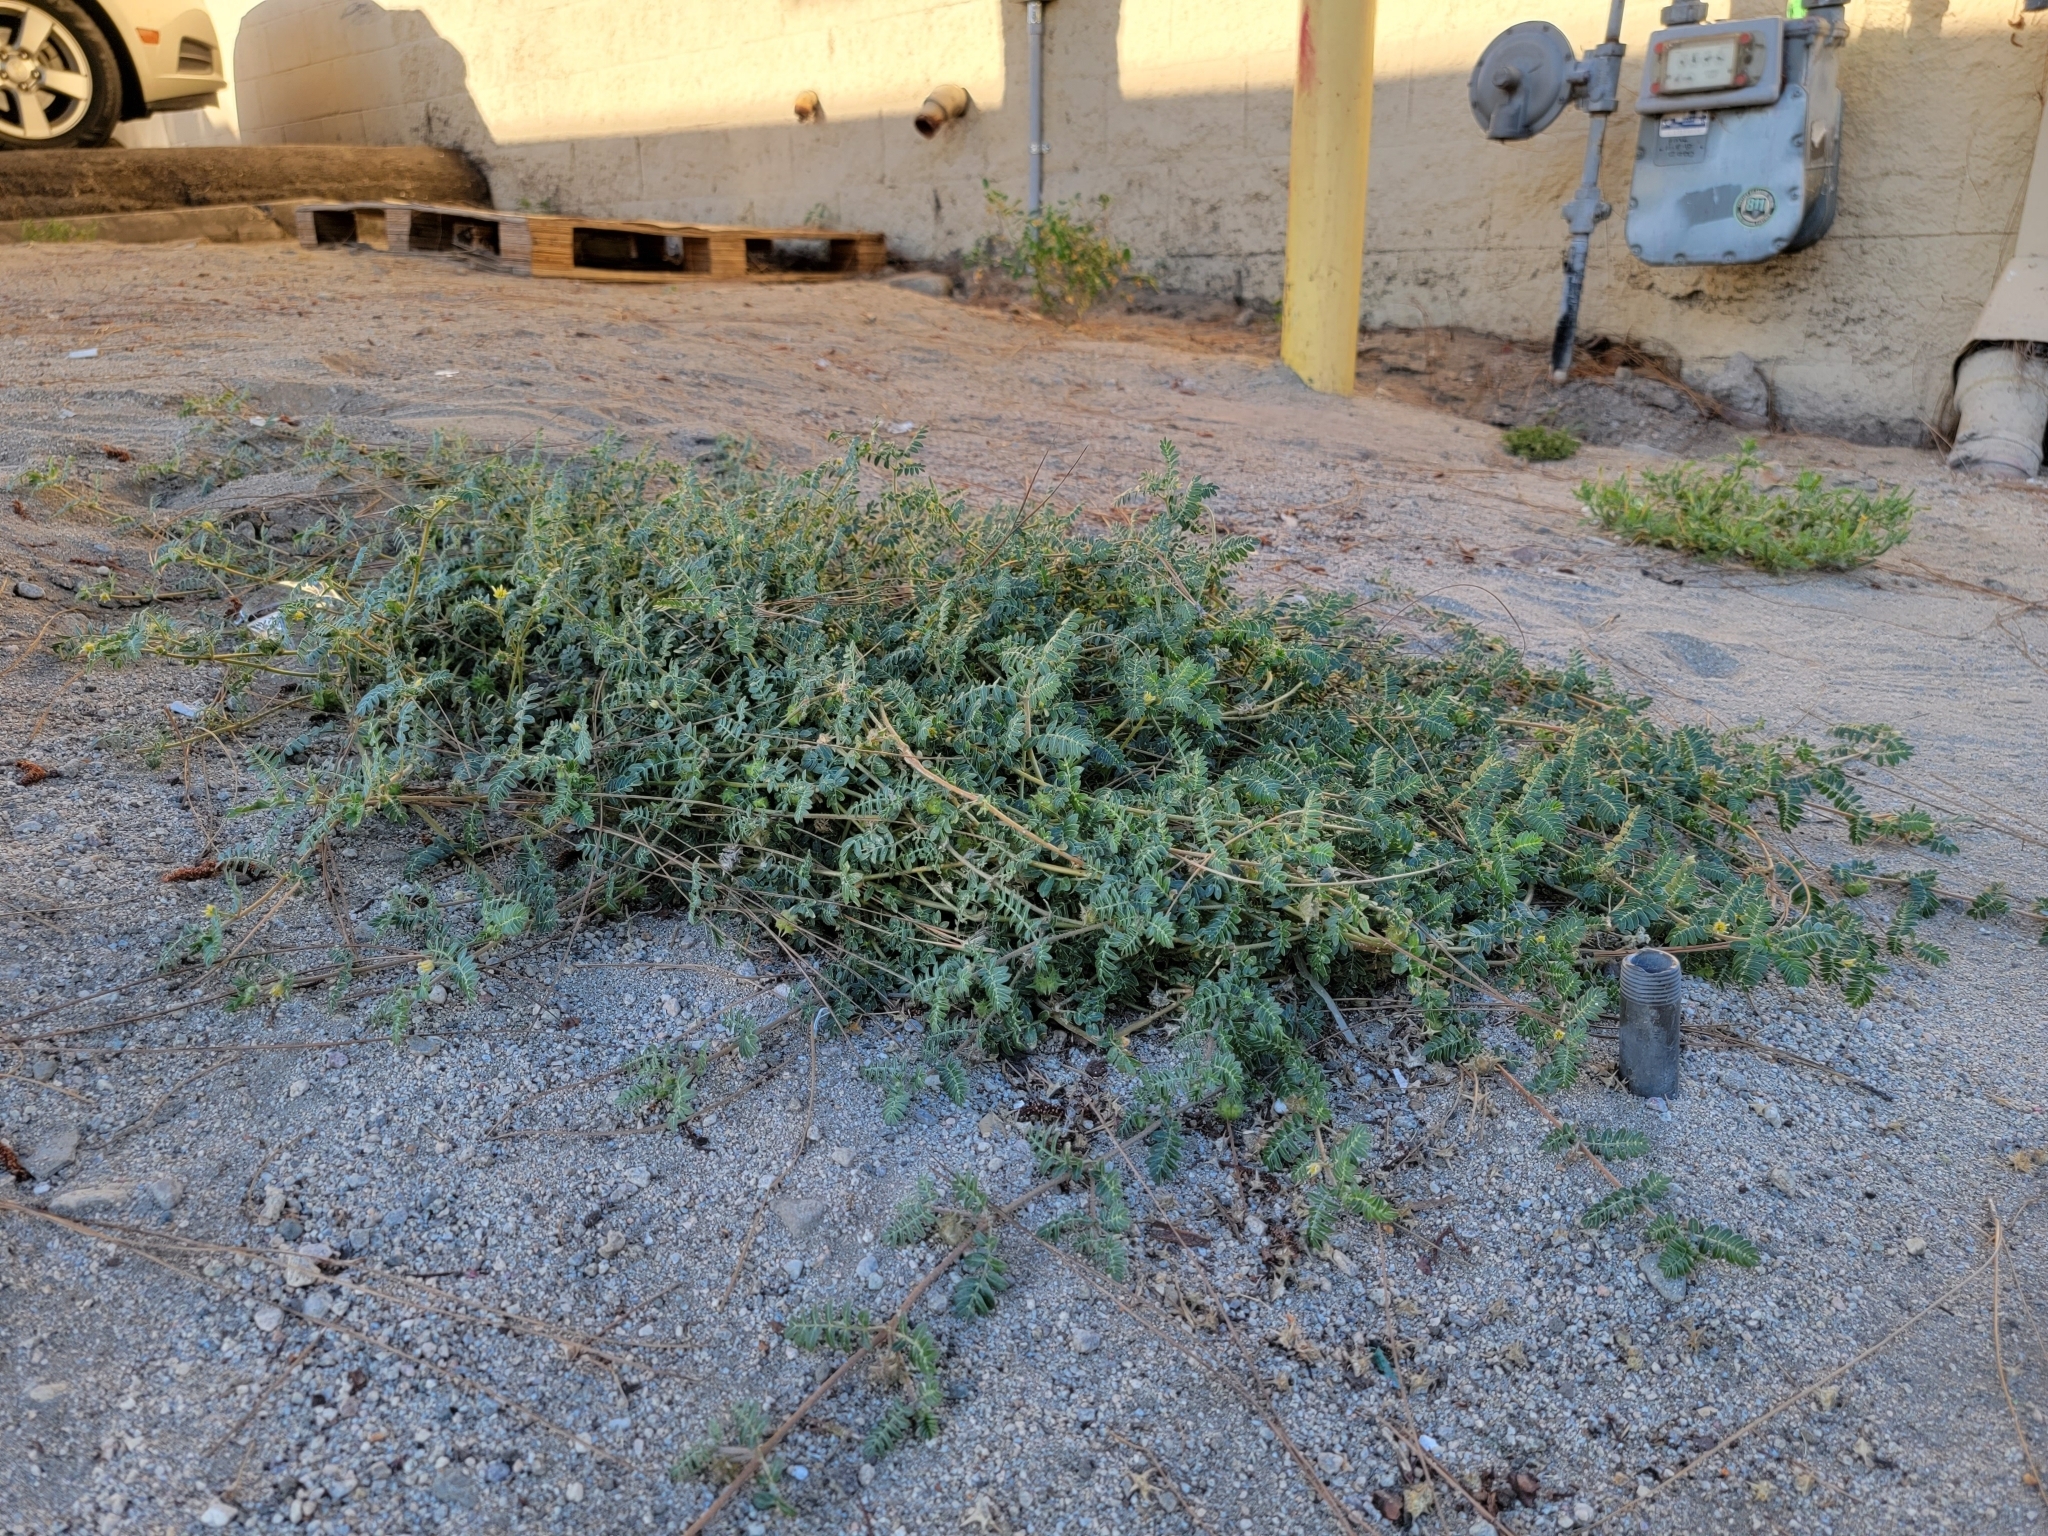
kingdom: Plantae
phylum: Tracheophyta
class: Magnoliopsida
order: Zygophyllales
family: Zygophyllaceae
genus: Tribulus
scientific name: Tribulus terrestris
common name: Puncturevine
